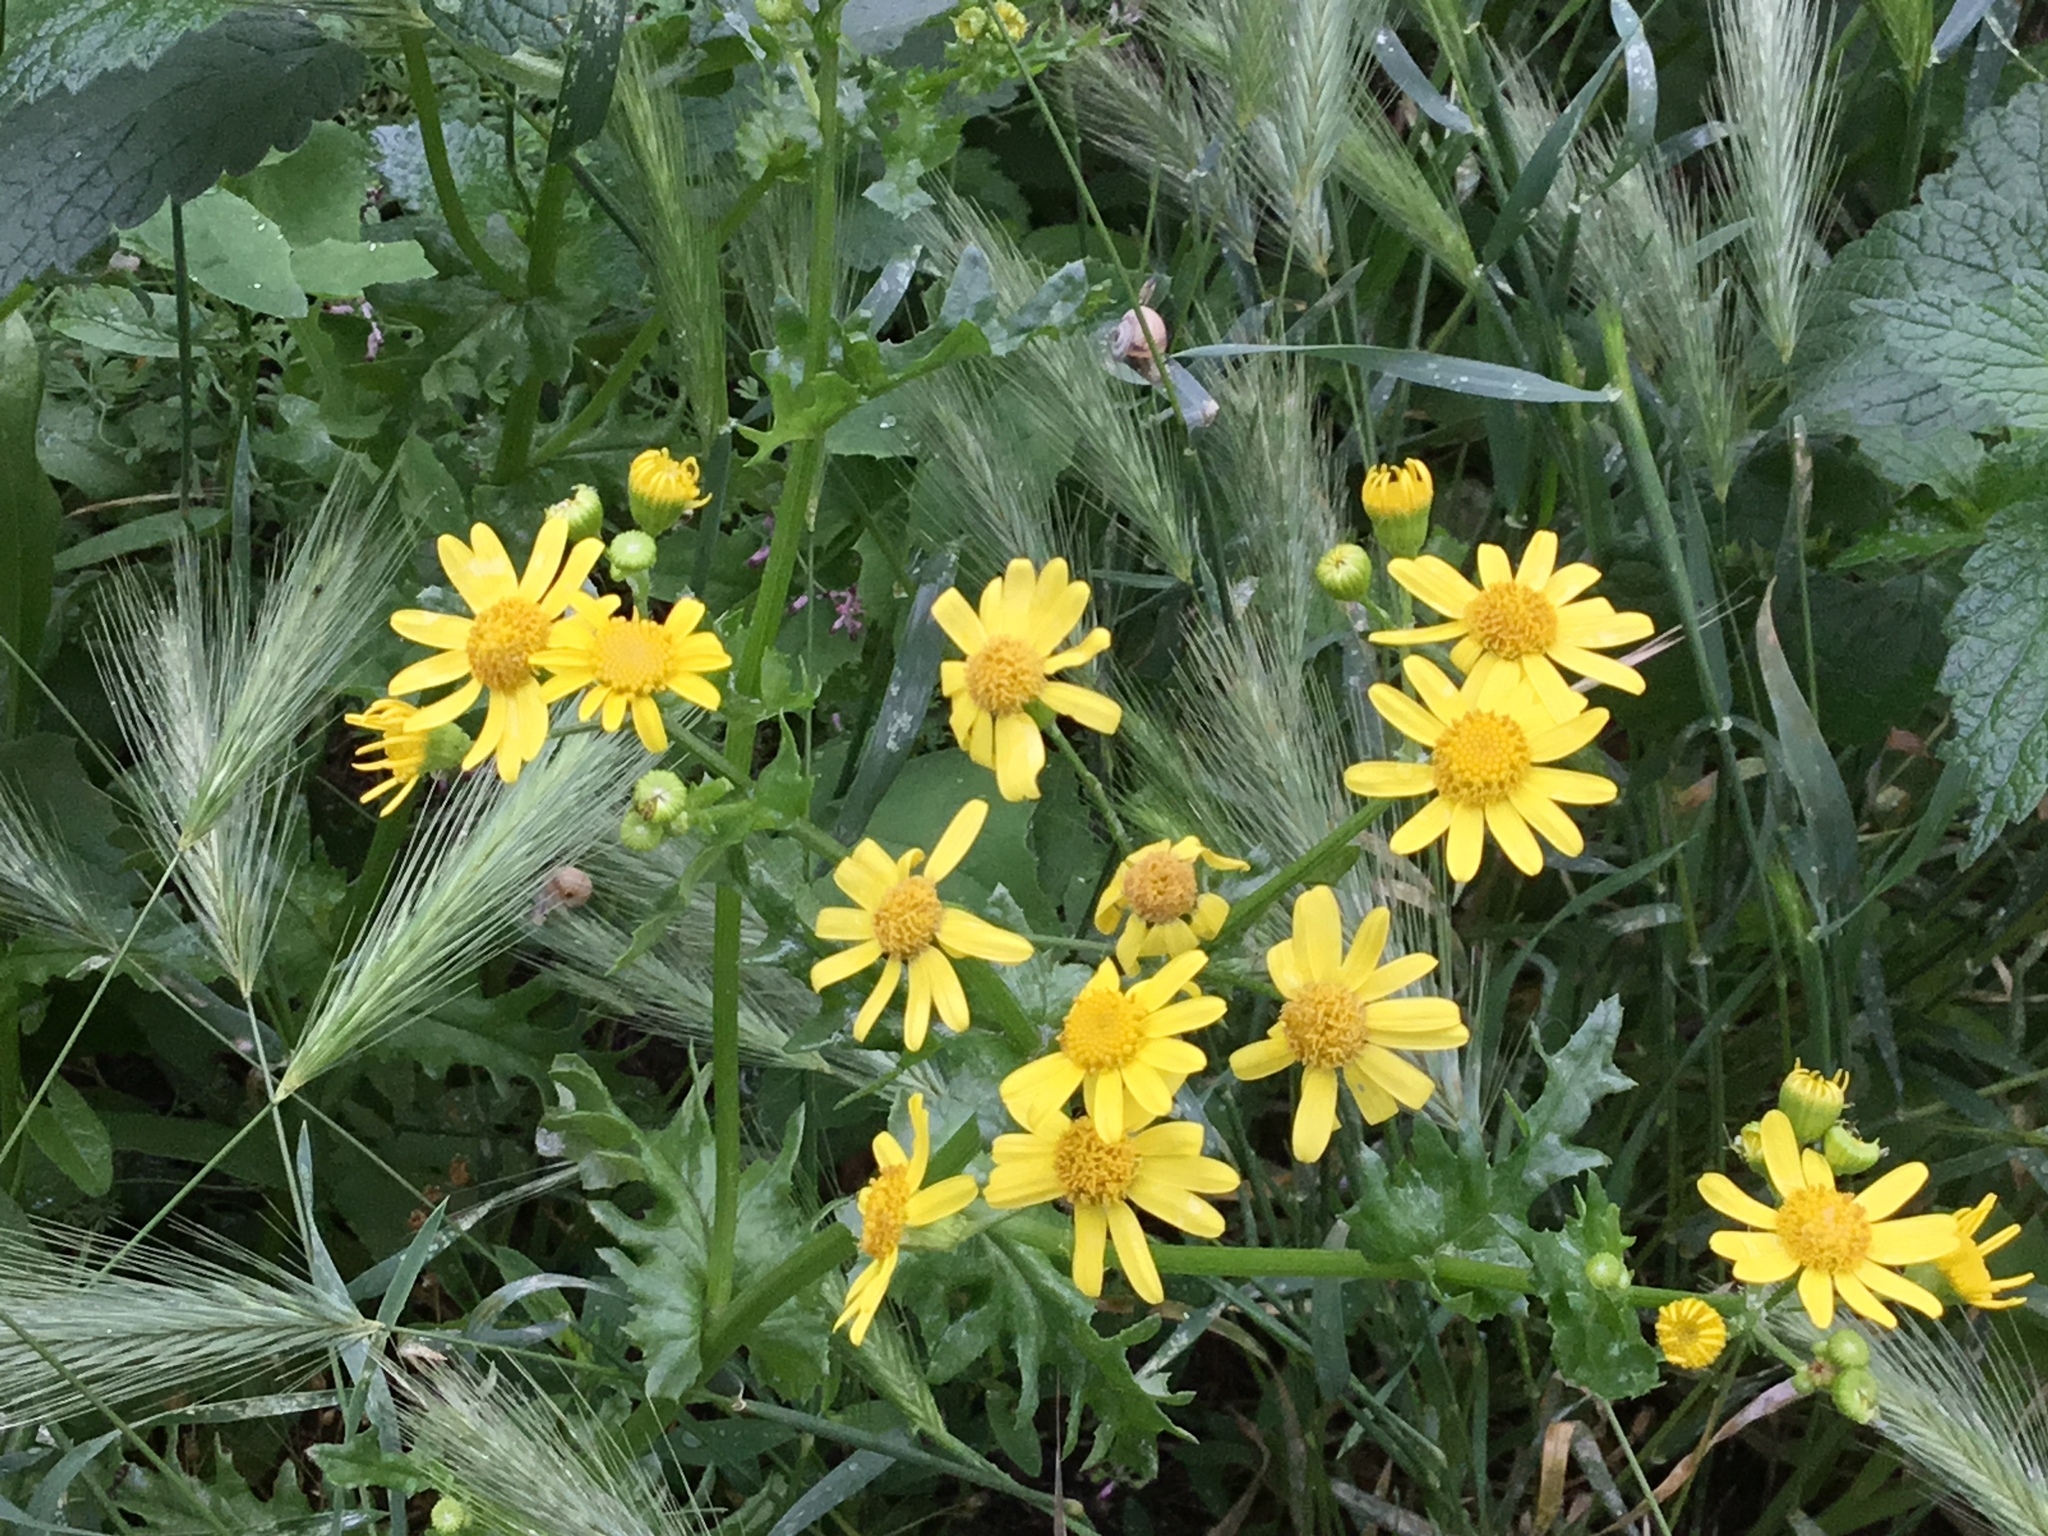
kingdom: Plantae
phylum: Tracheophyta
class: Magnoliopsida
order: Asterales
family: Asteraceae
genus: Senecio
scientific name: Senecio vernalis
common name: Eastern groundsel
